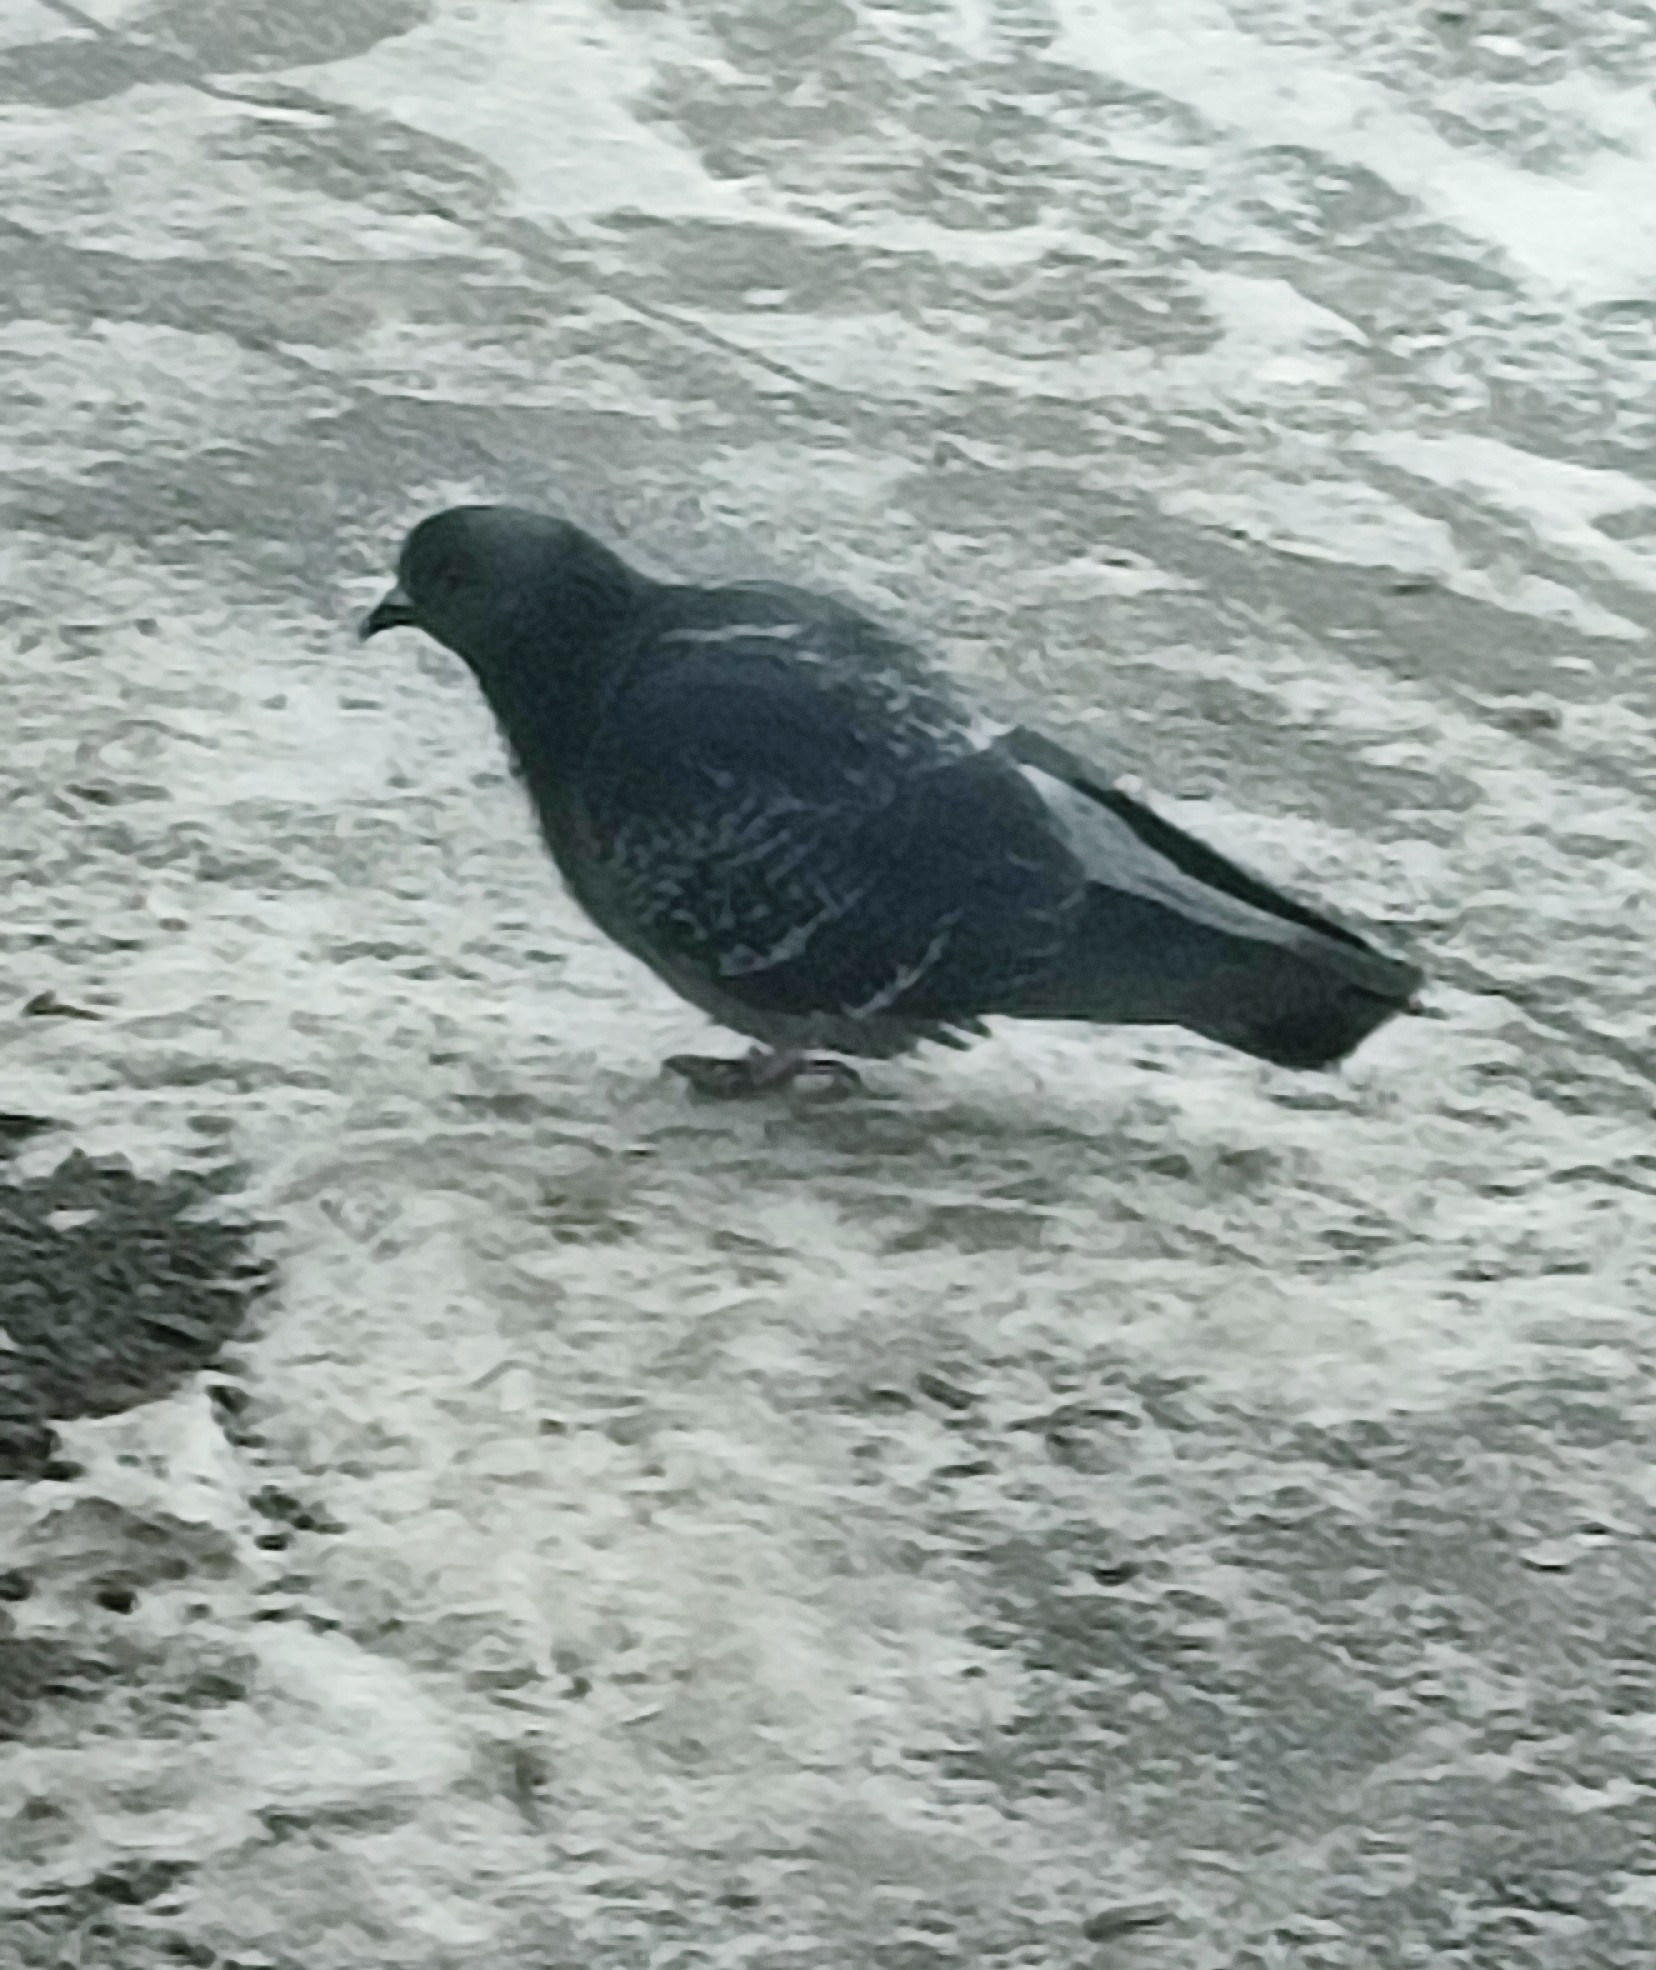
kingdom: Animalia
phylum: Chordata
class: Aves
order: Columbiformes
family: Columbidae
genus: Columba
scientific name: Columba livia
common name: Rock pigeon
